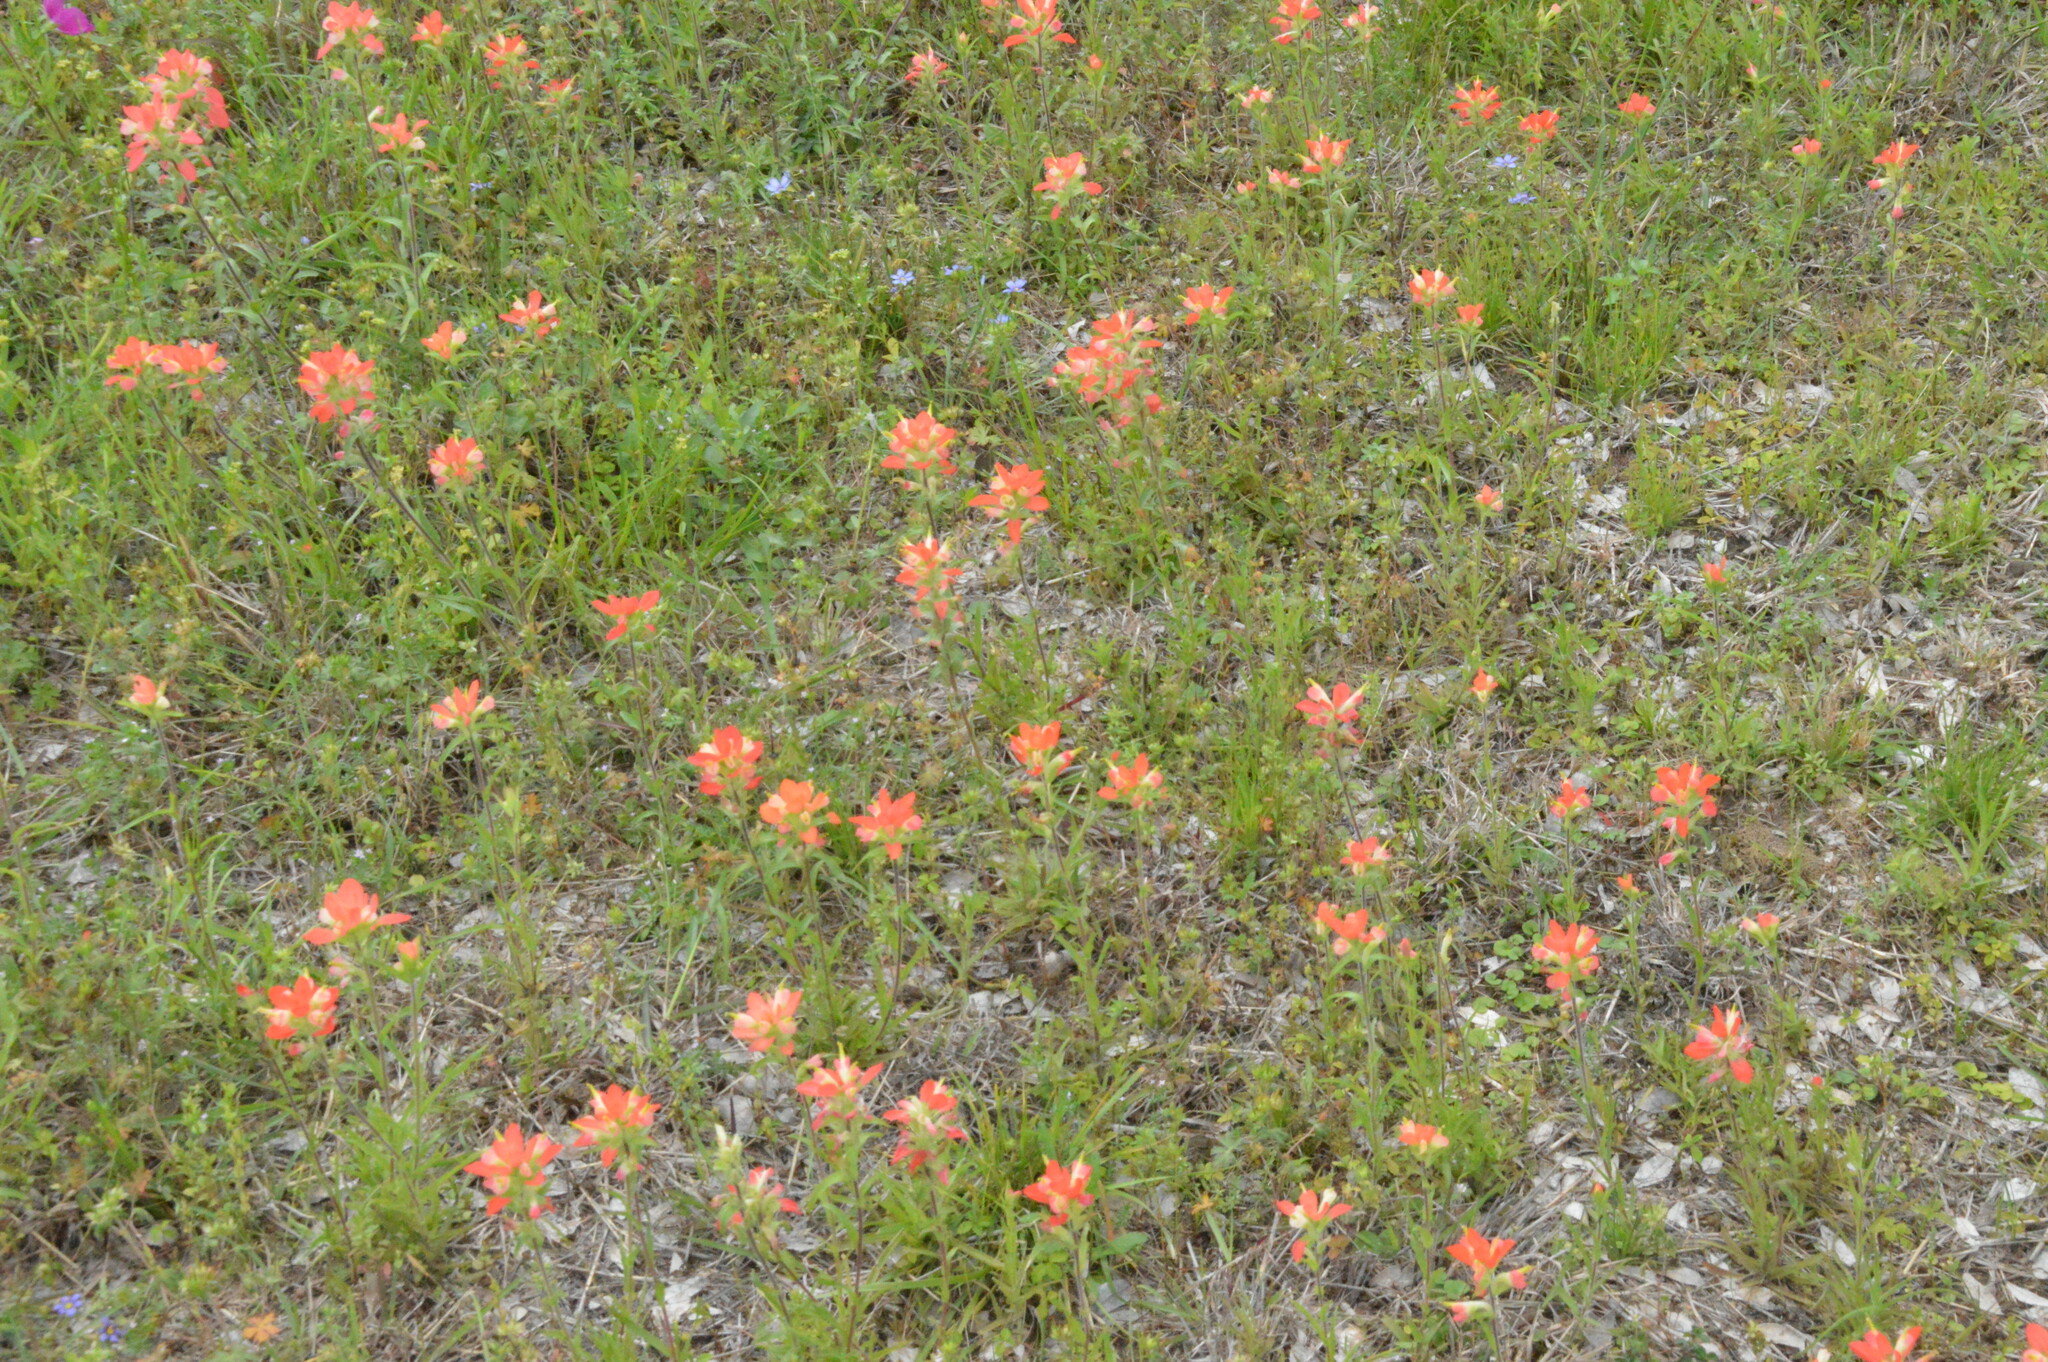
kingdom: Plantae
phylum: Tracheophyta
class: Magnoliopsida
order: Lamiales
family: Orobanchaceae
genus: Castilleja
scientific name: Castilleja indivisa
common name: Texas paintbrush
